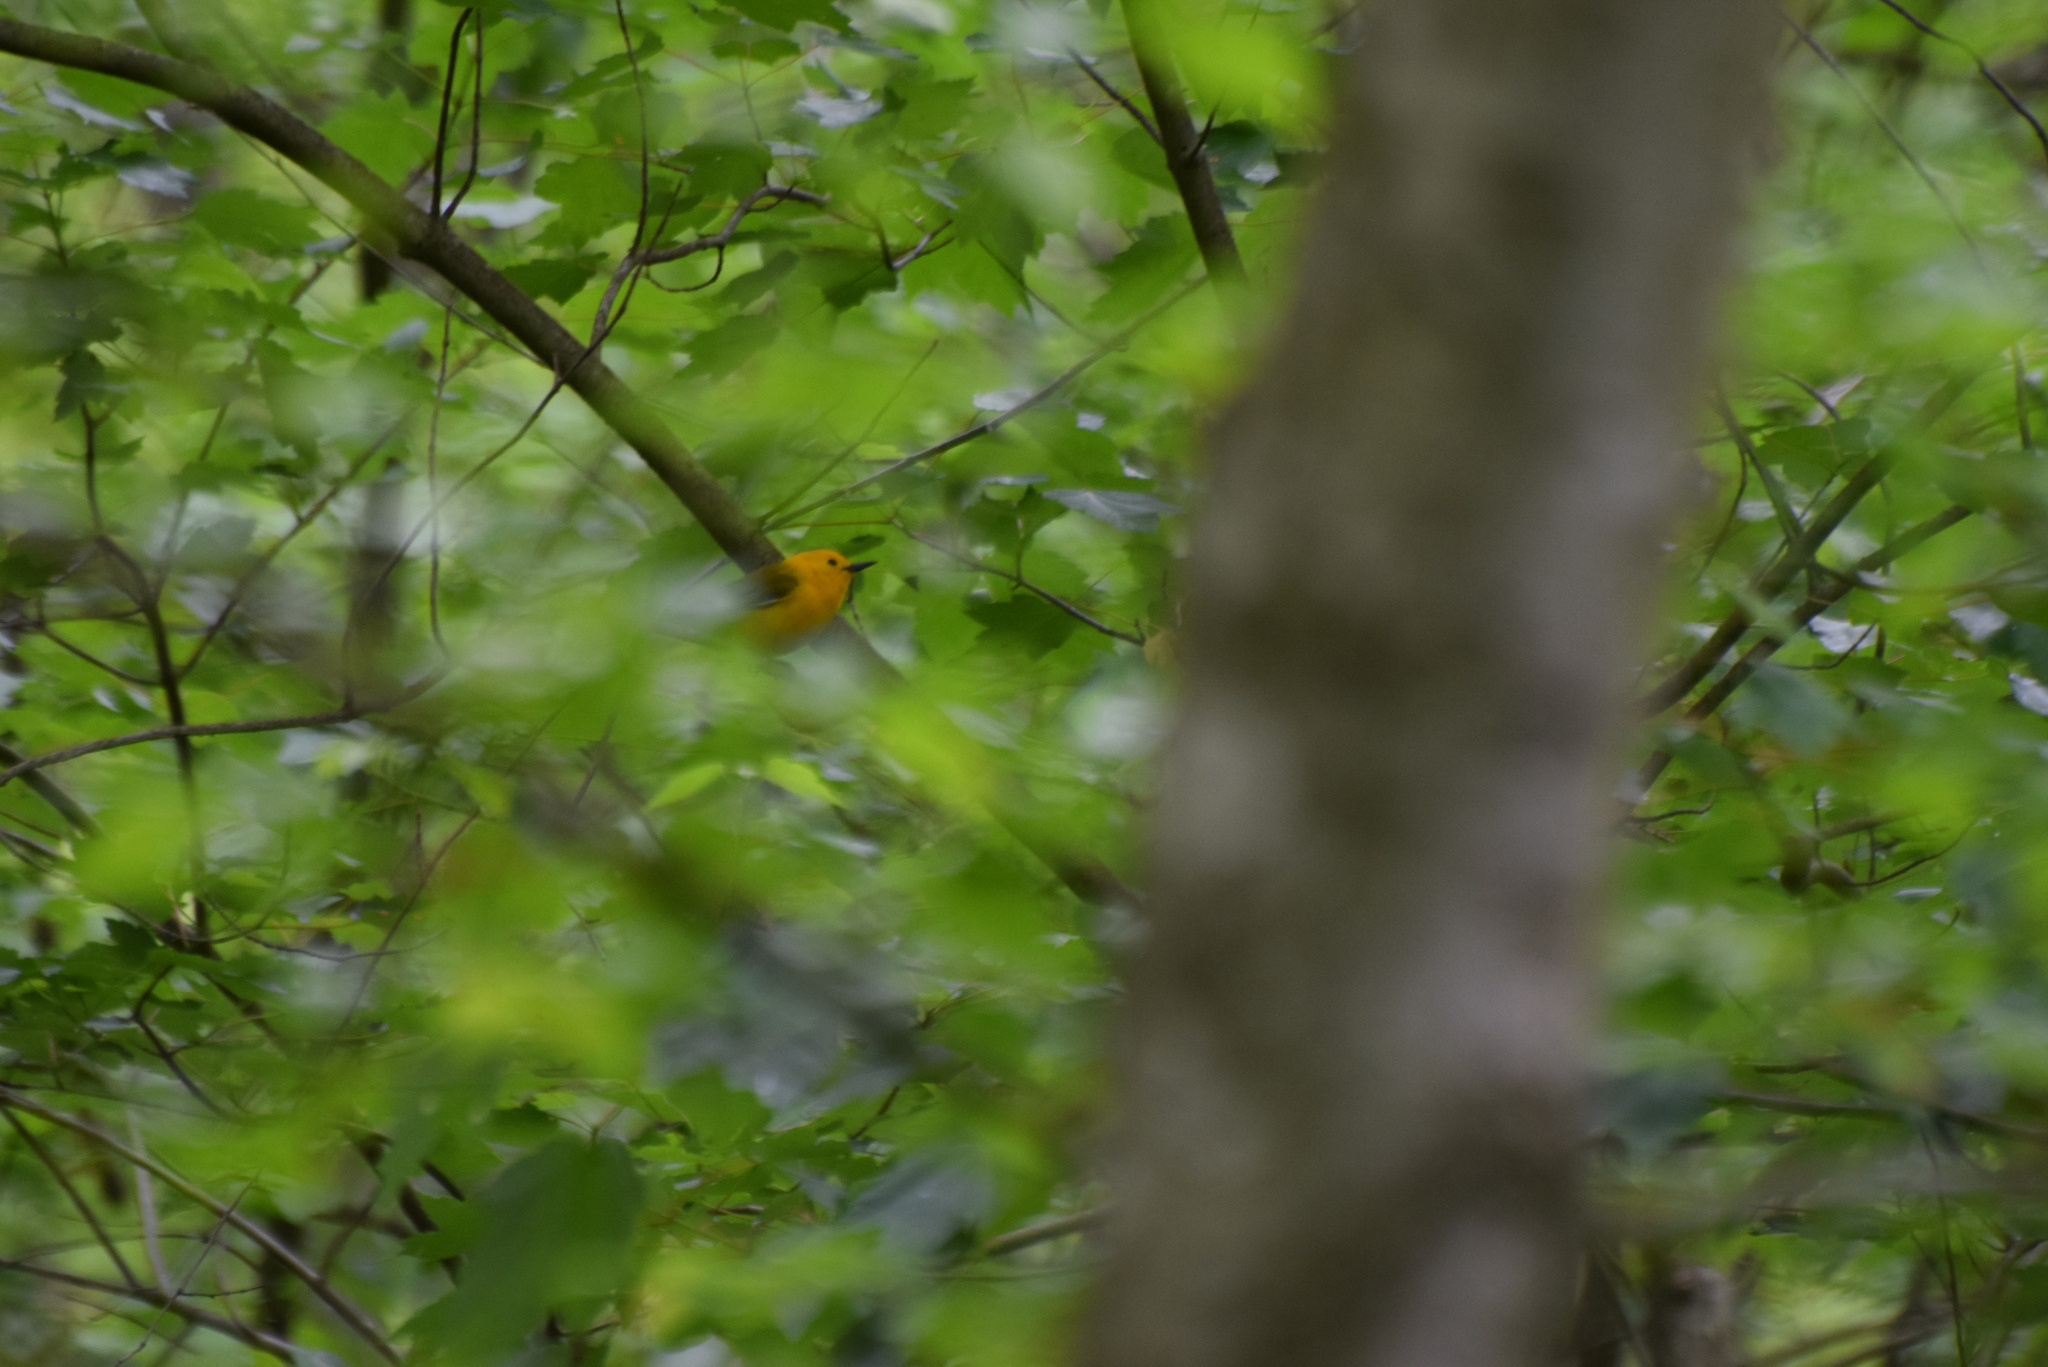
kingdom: Animalia
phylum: Chordata
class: Aves
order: Passeriformes
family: Parulidae
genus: Protonotaria
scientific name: Protonotaria citrea
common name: Prothonotary warbler
